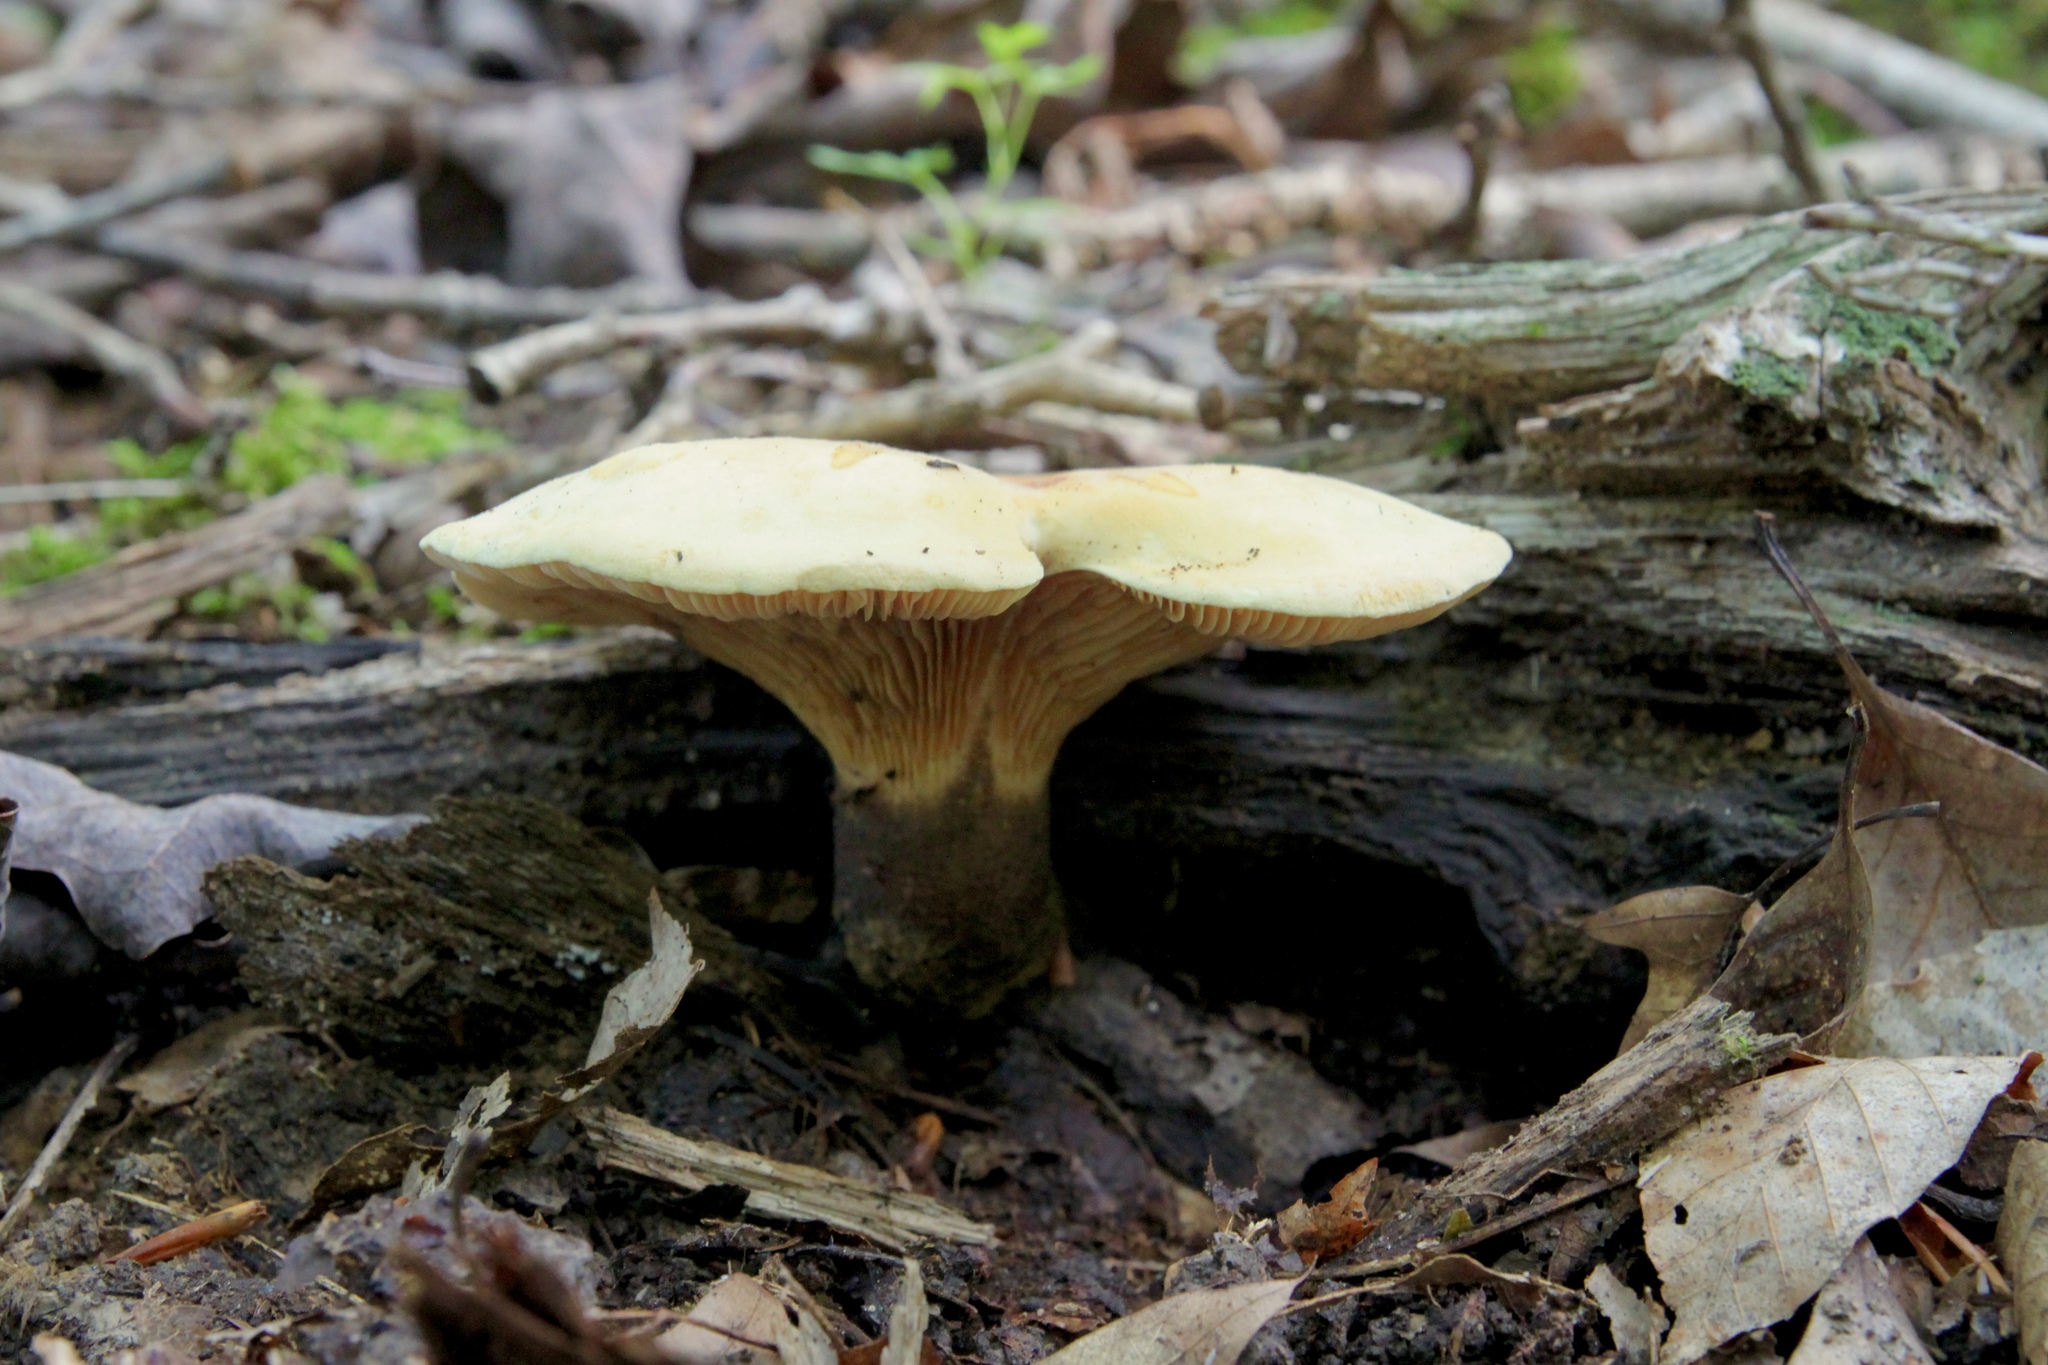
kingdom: Fungi
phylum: Basidiomycota
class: Agaricomycetes
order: Boletales
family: Tapinellaceae
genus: Tapinella
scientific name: Tapinella atrotomentosa
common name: Velvet rollrim
